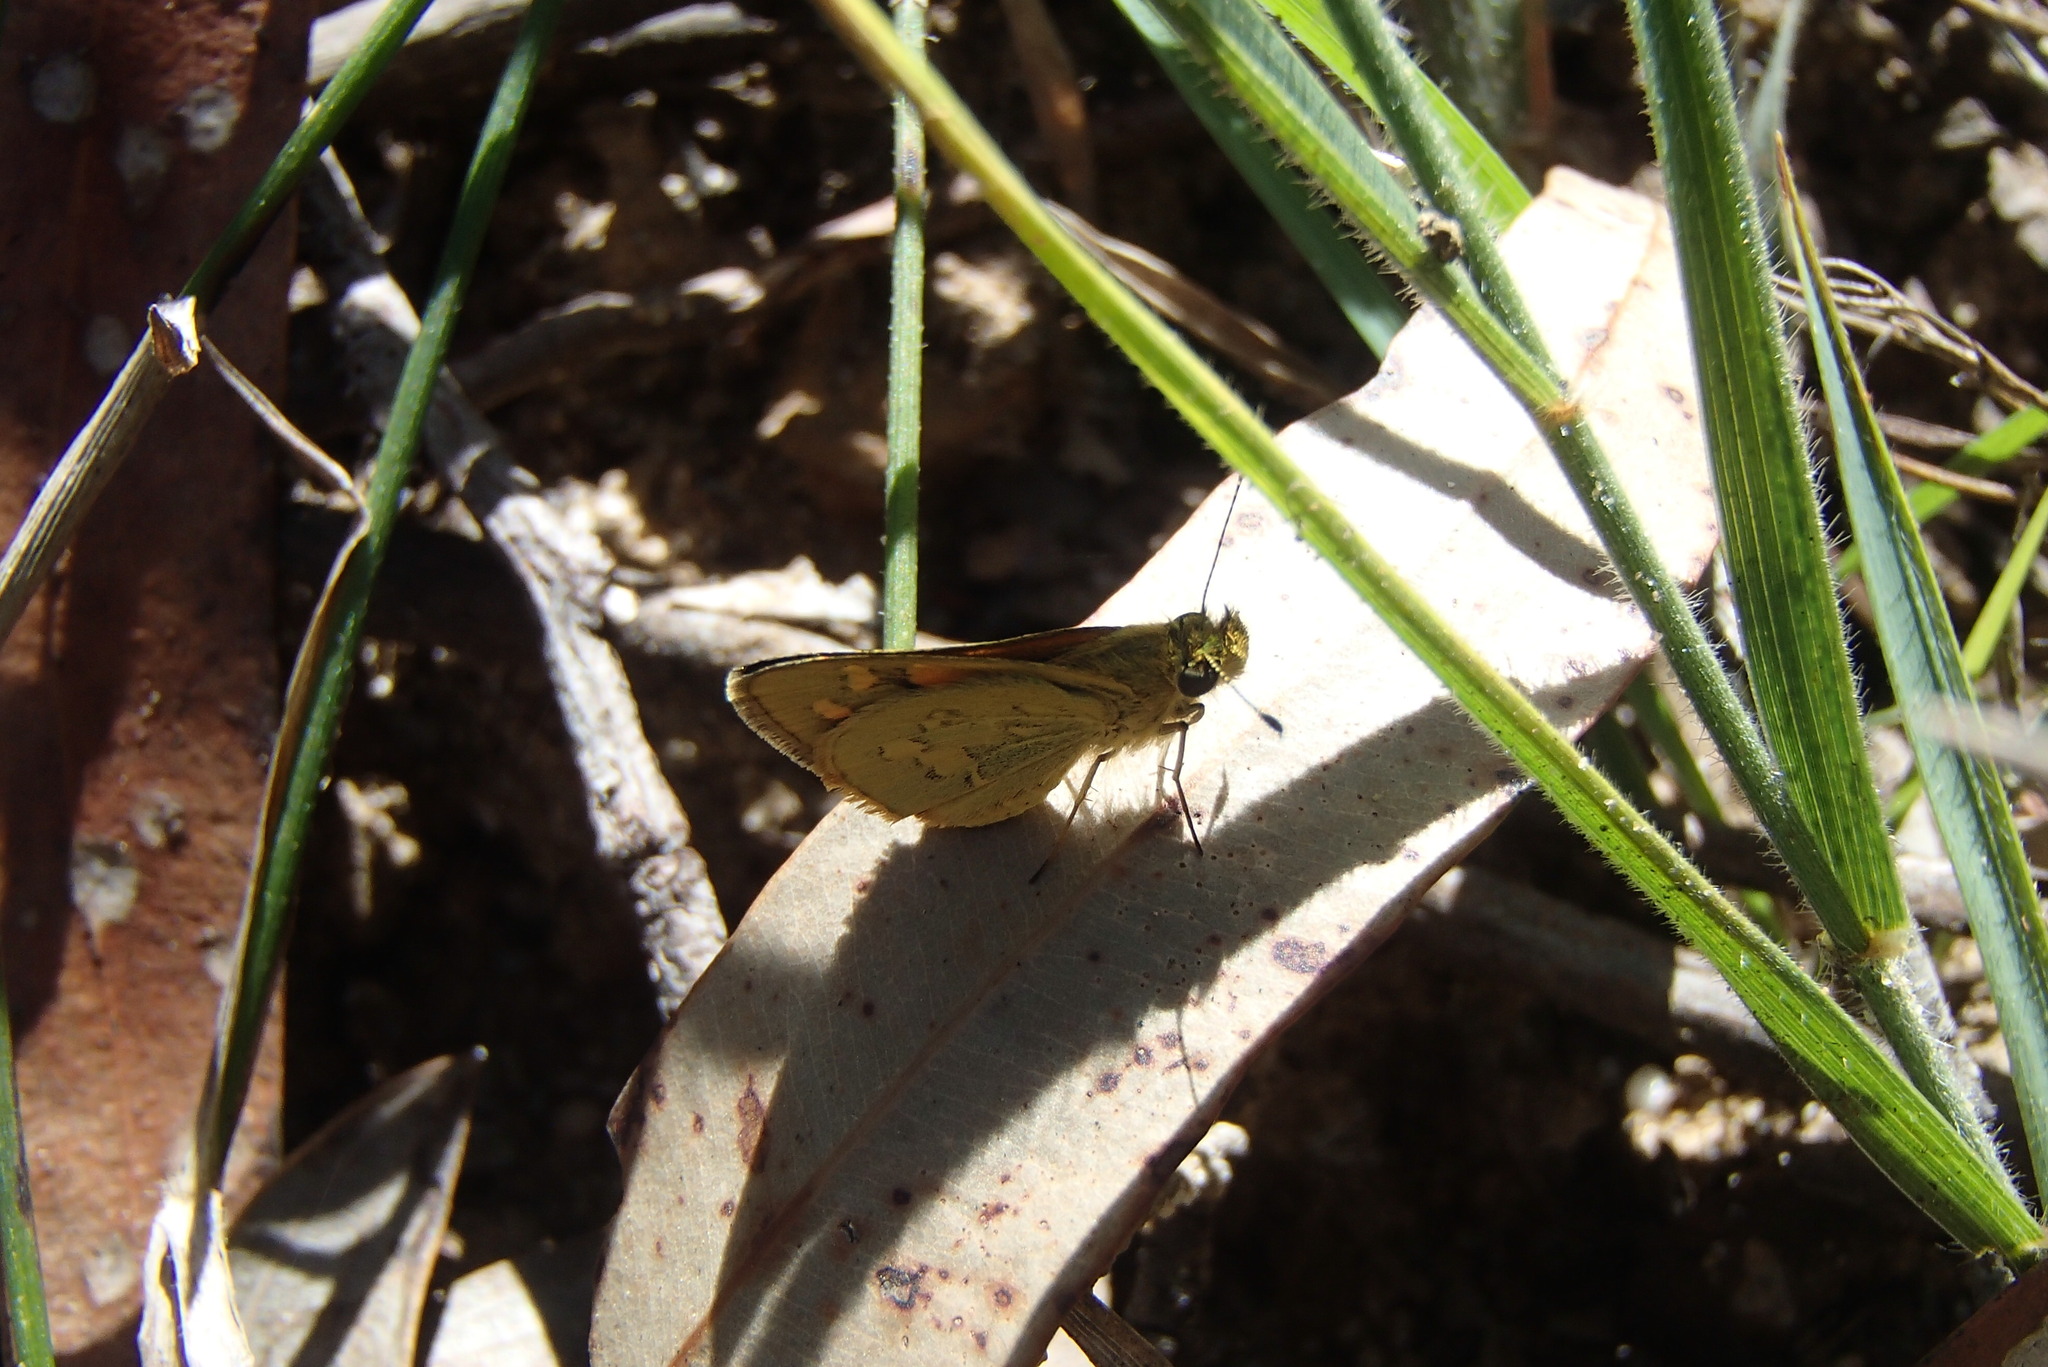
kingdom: Animalia
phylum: Arthropoda
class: Insecta
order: Lepidoptera
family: Hesperiidae
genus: Ocybadistes
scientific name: Ocybadistes walkeri
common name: Yellow-banded dart
